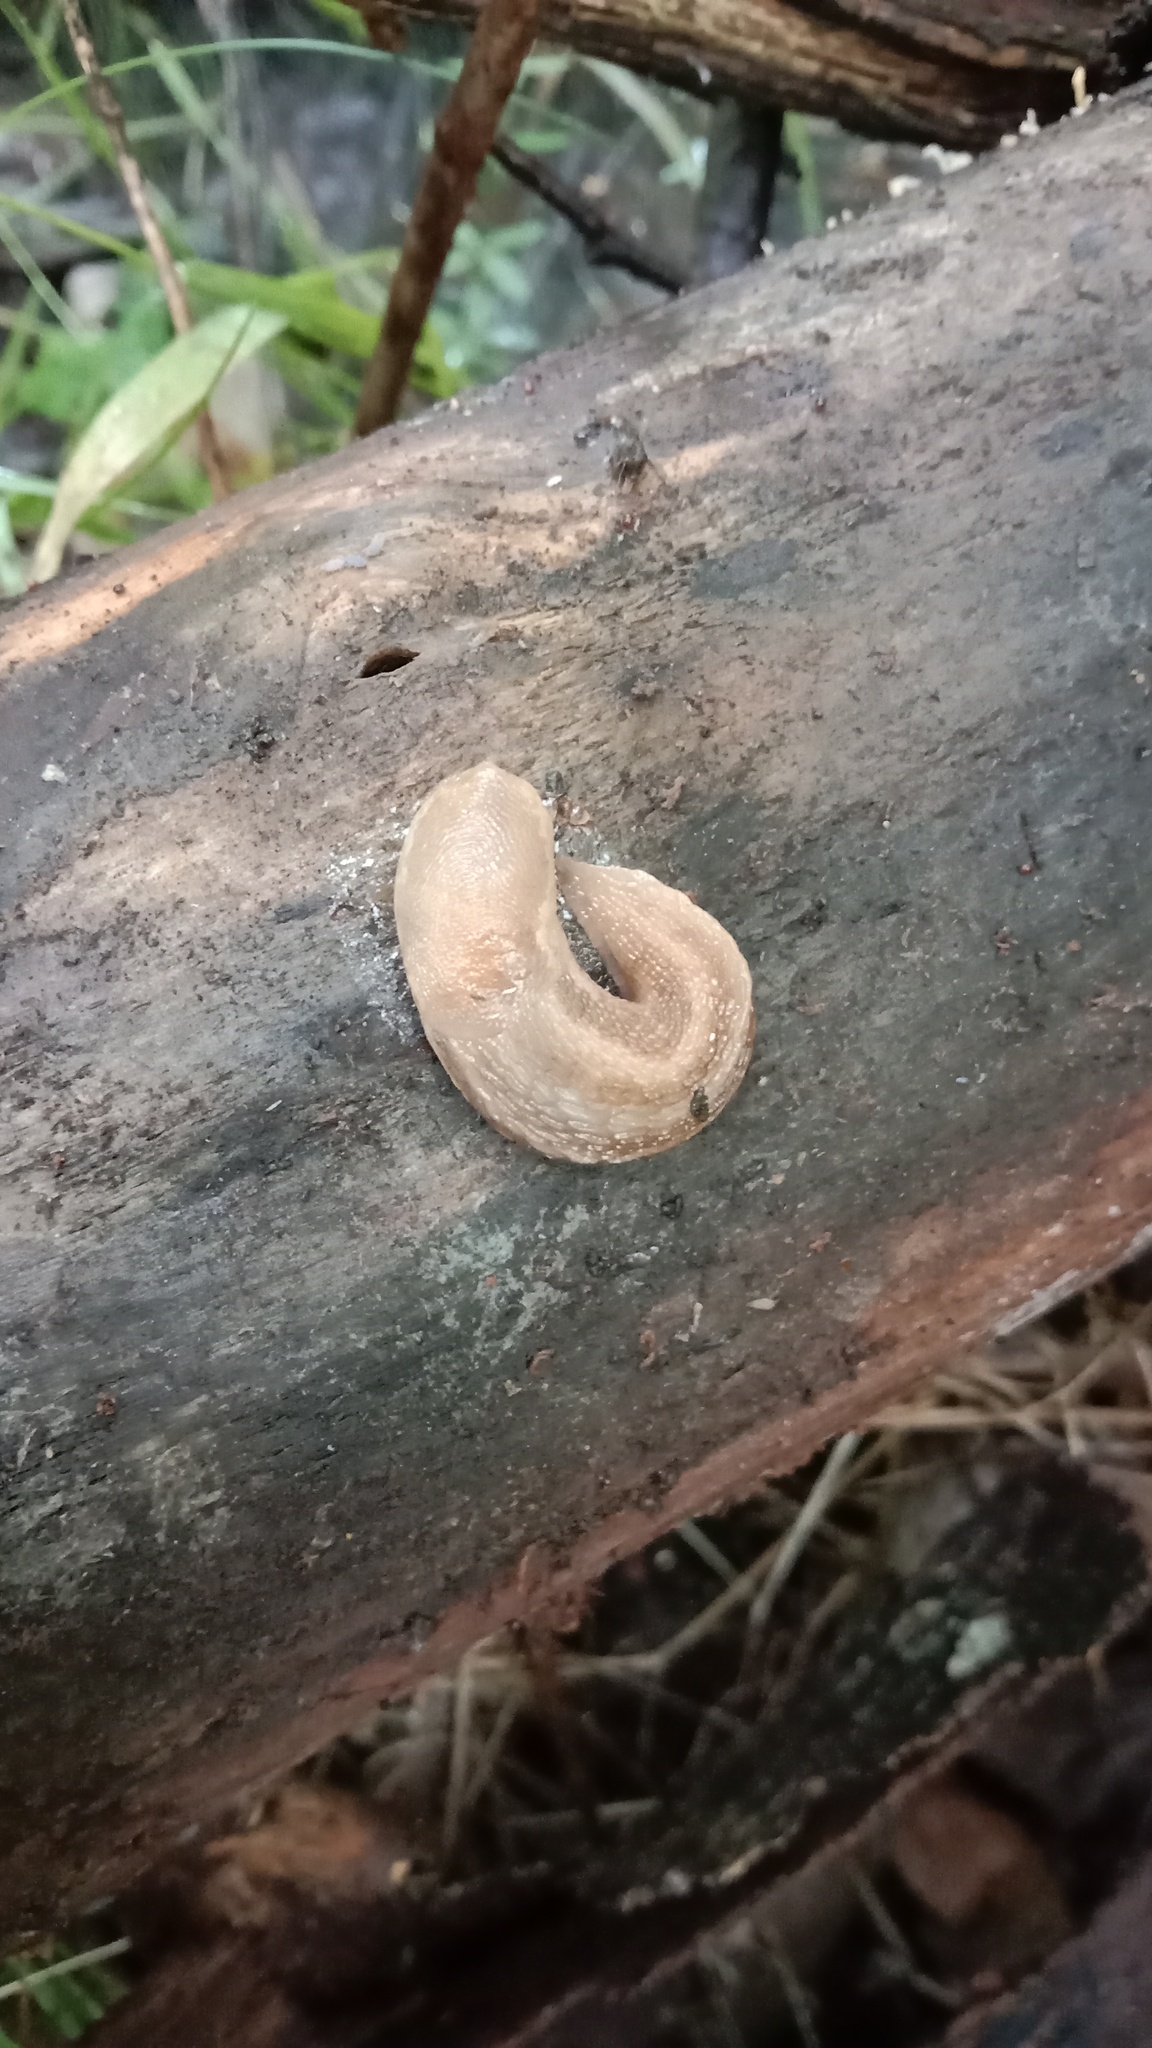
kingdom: Animalia
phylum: Mollusca
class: Gastropoda
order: Stylommatophora
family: Limacidae
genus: Limax
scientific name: Limax cinereoniger
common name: Ash-black slug
